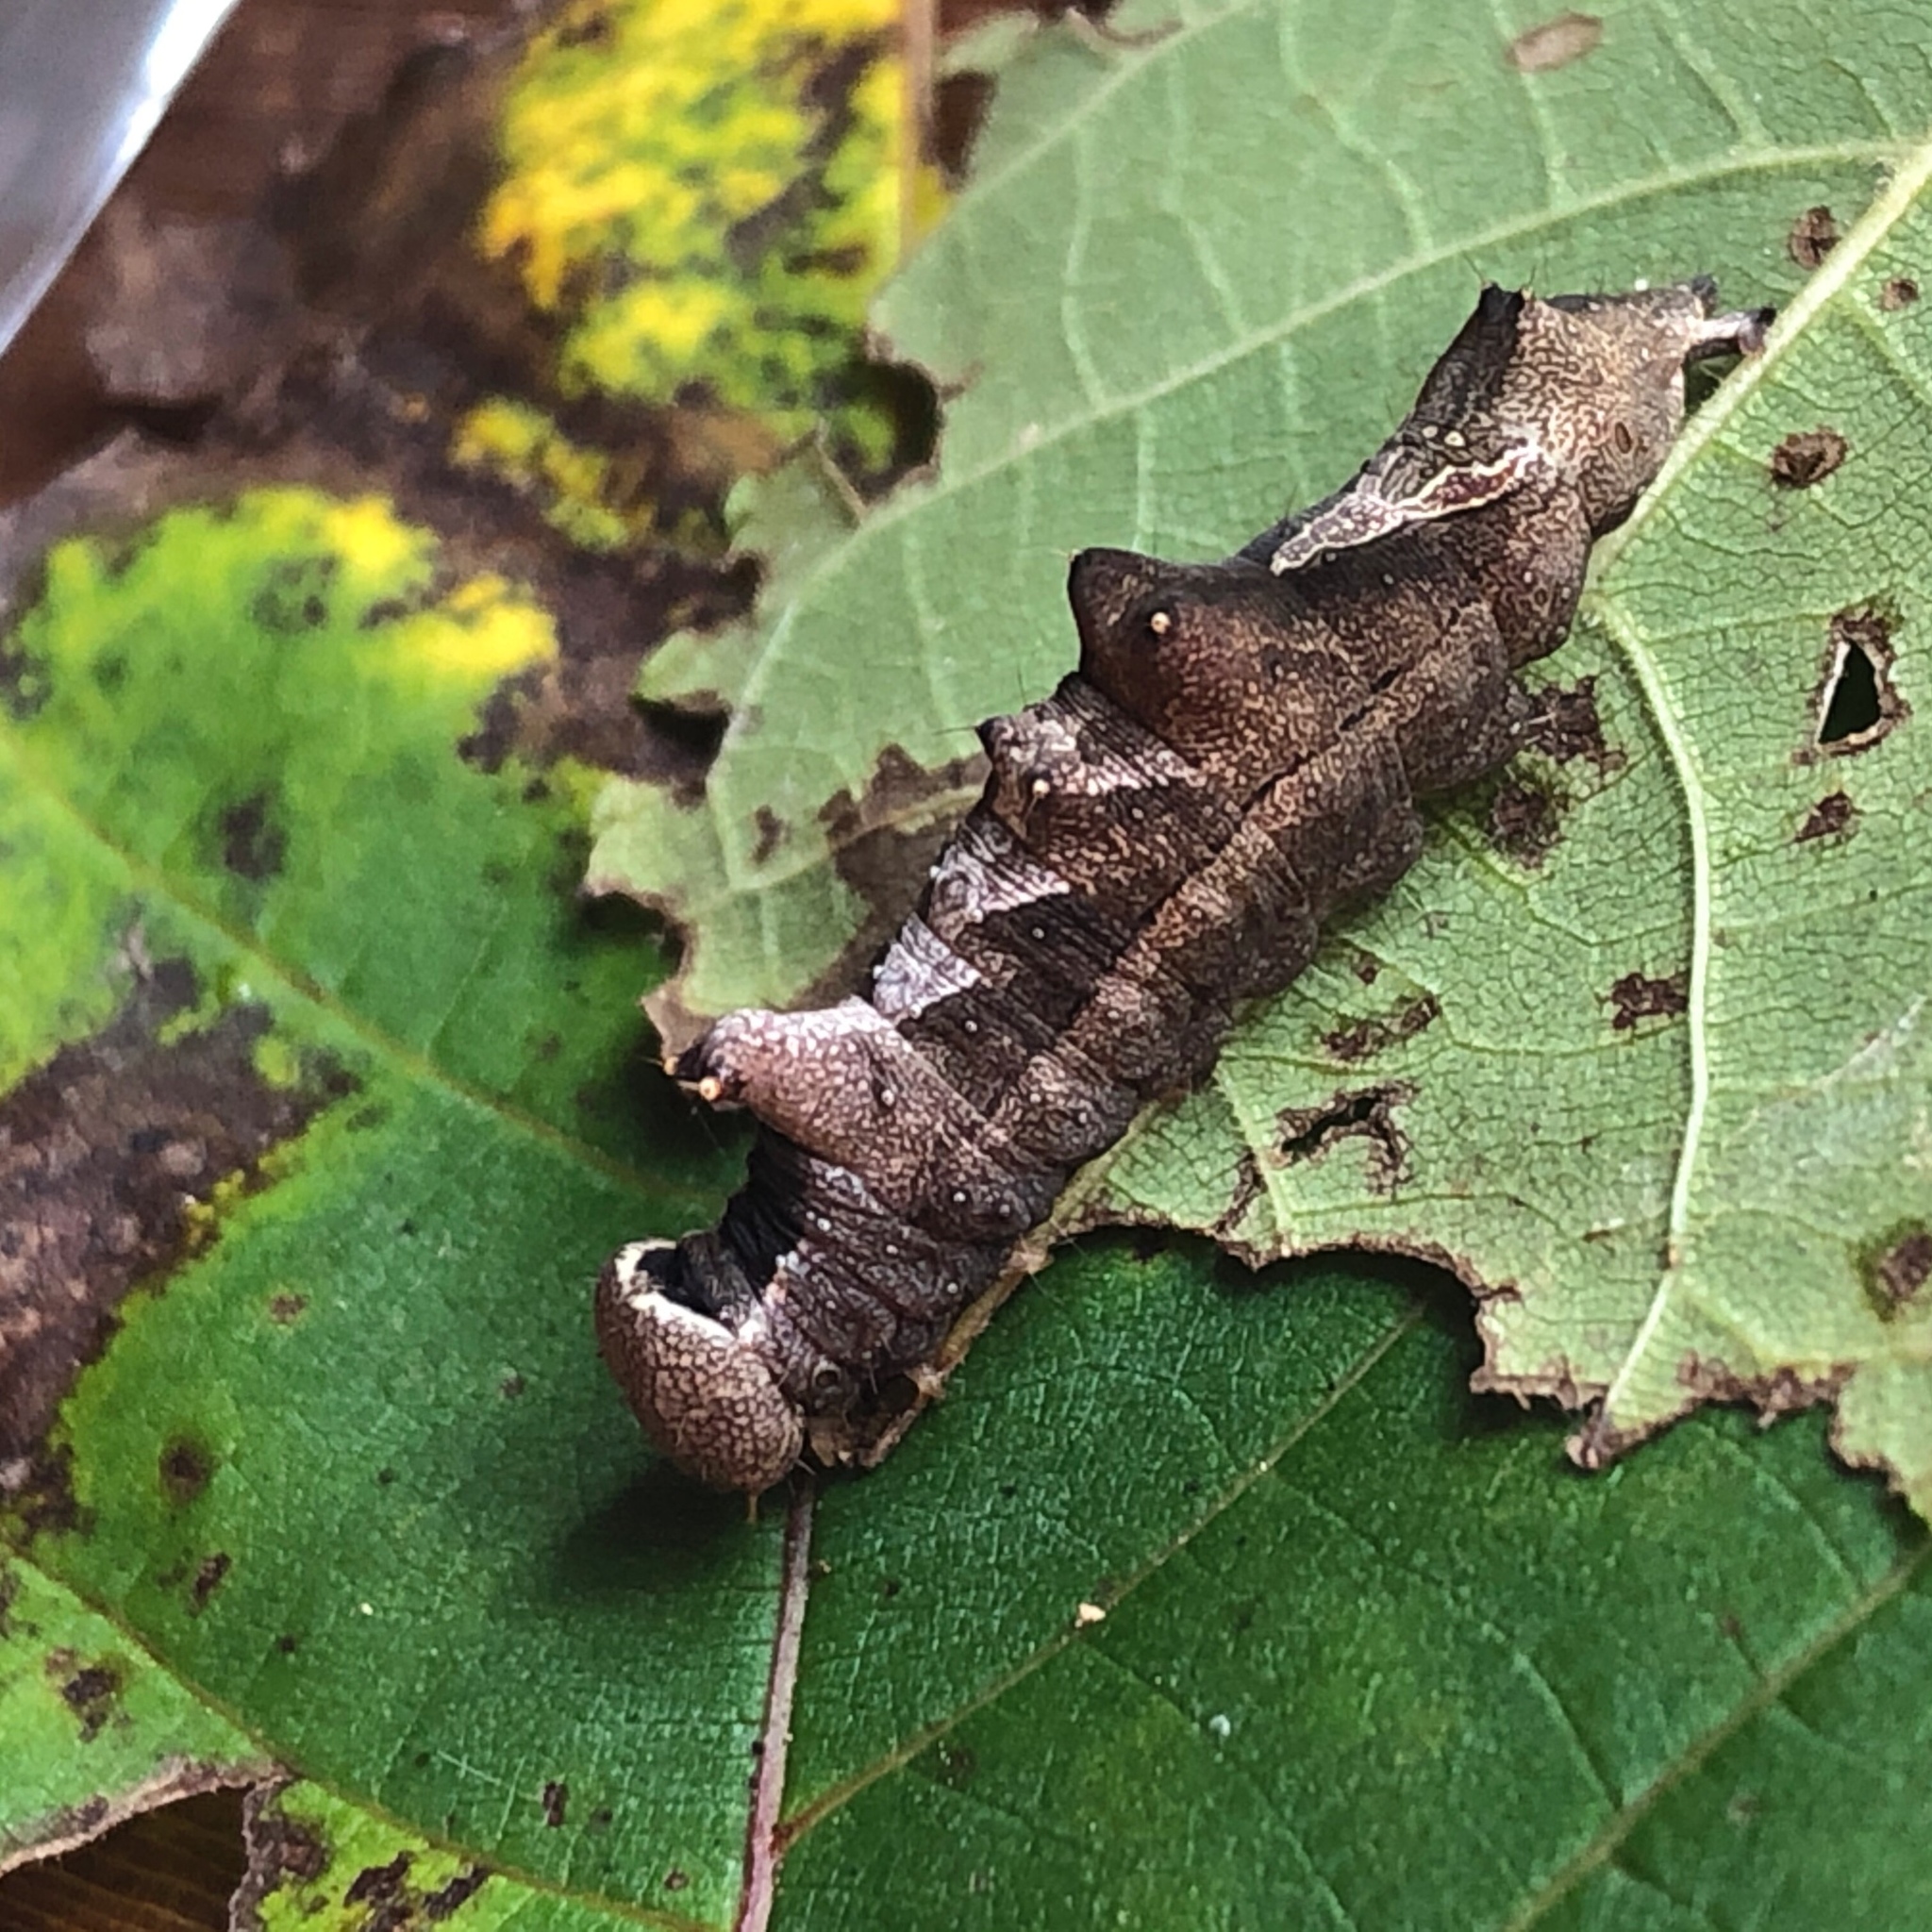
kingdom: Animalia
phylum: Arthropoda
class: Insecta
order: Lepidoptera
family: Notodontidae
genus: Schizura
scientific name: Schizura
